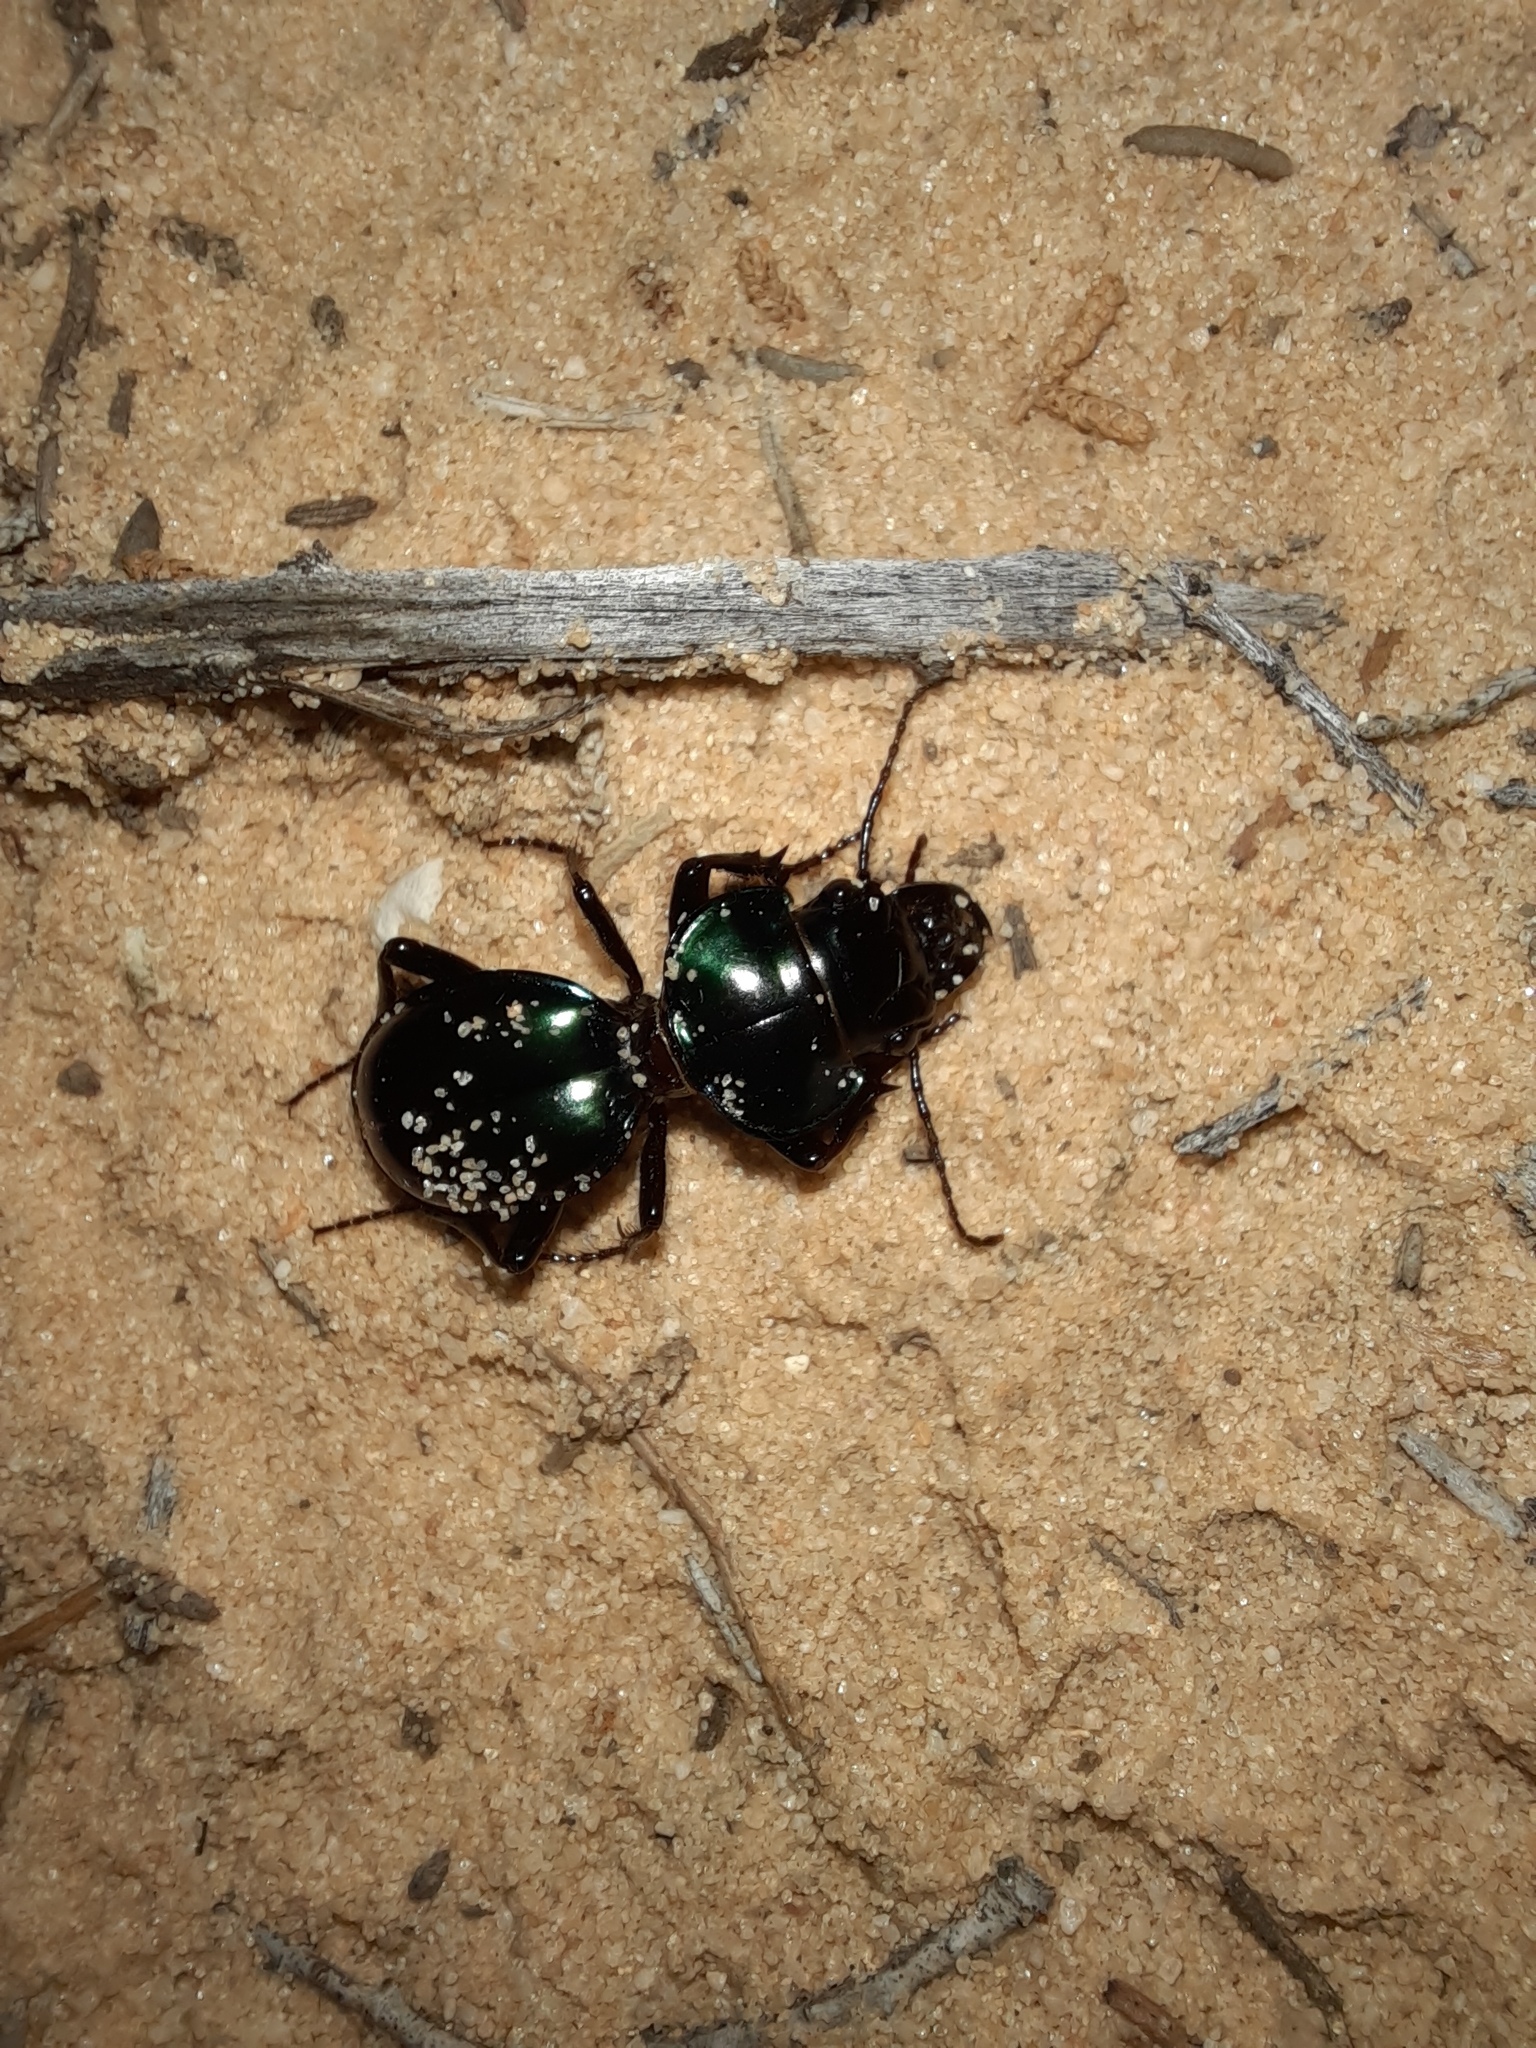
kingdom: Animalia
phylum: Arthropoda
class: Insecta
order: Coleoptera
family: Carabidae
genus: Carenum
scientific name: Carenum elegans
